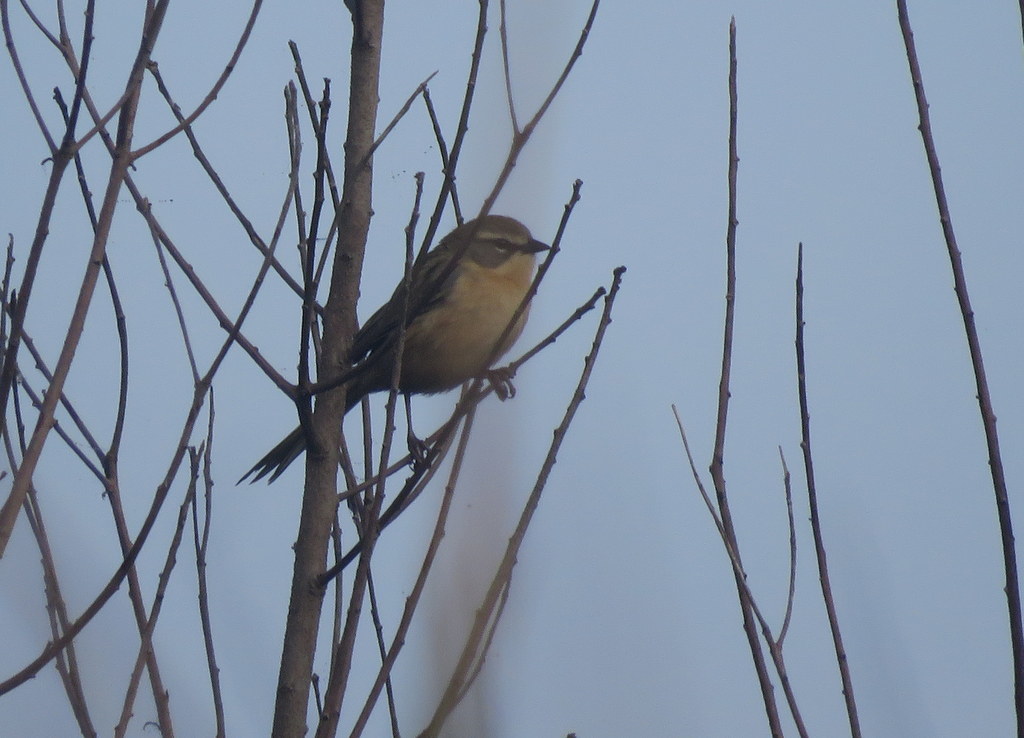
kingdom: Animalia
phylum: Chordata
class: Aves
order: Passeriformes
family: Thraupidae
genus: Donacospiza
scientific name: Donacospiza albifrons
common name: Long-tailed reed finch
